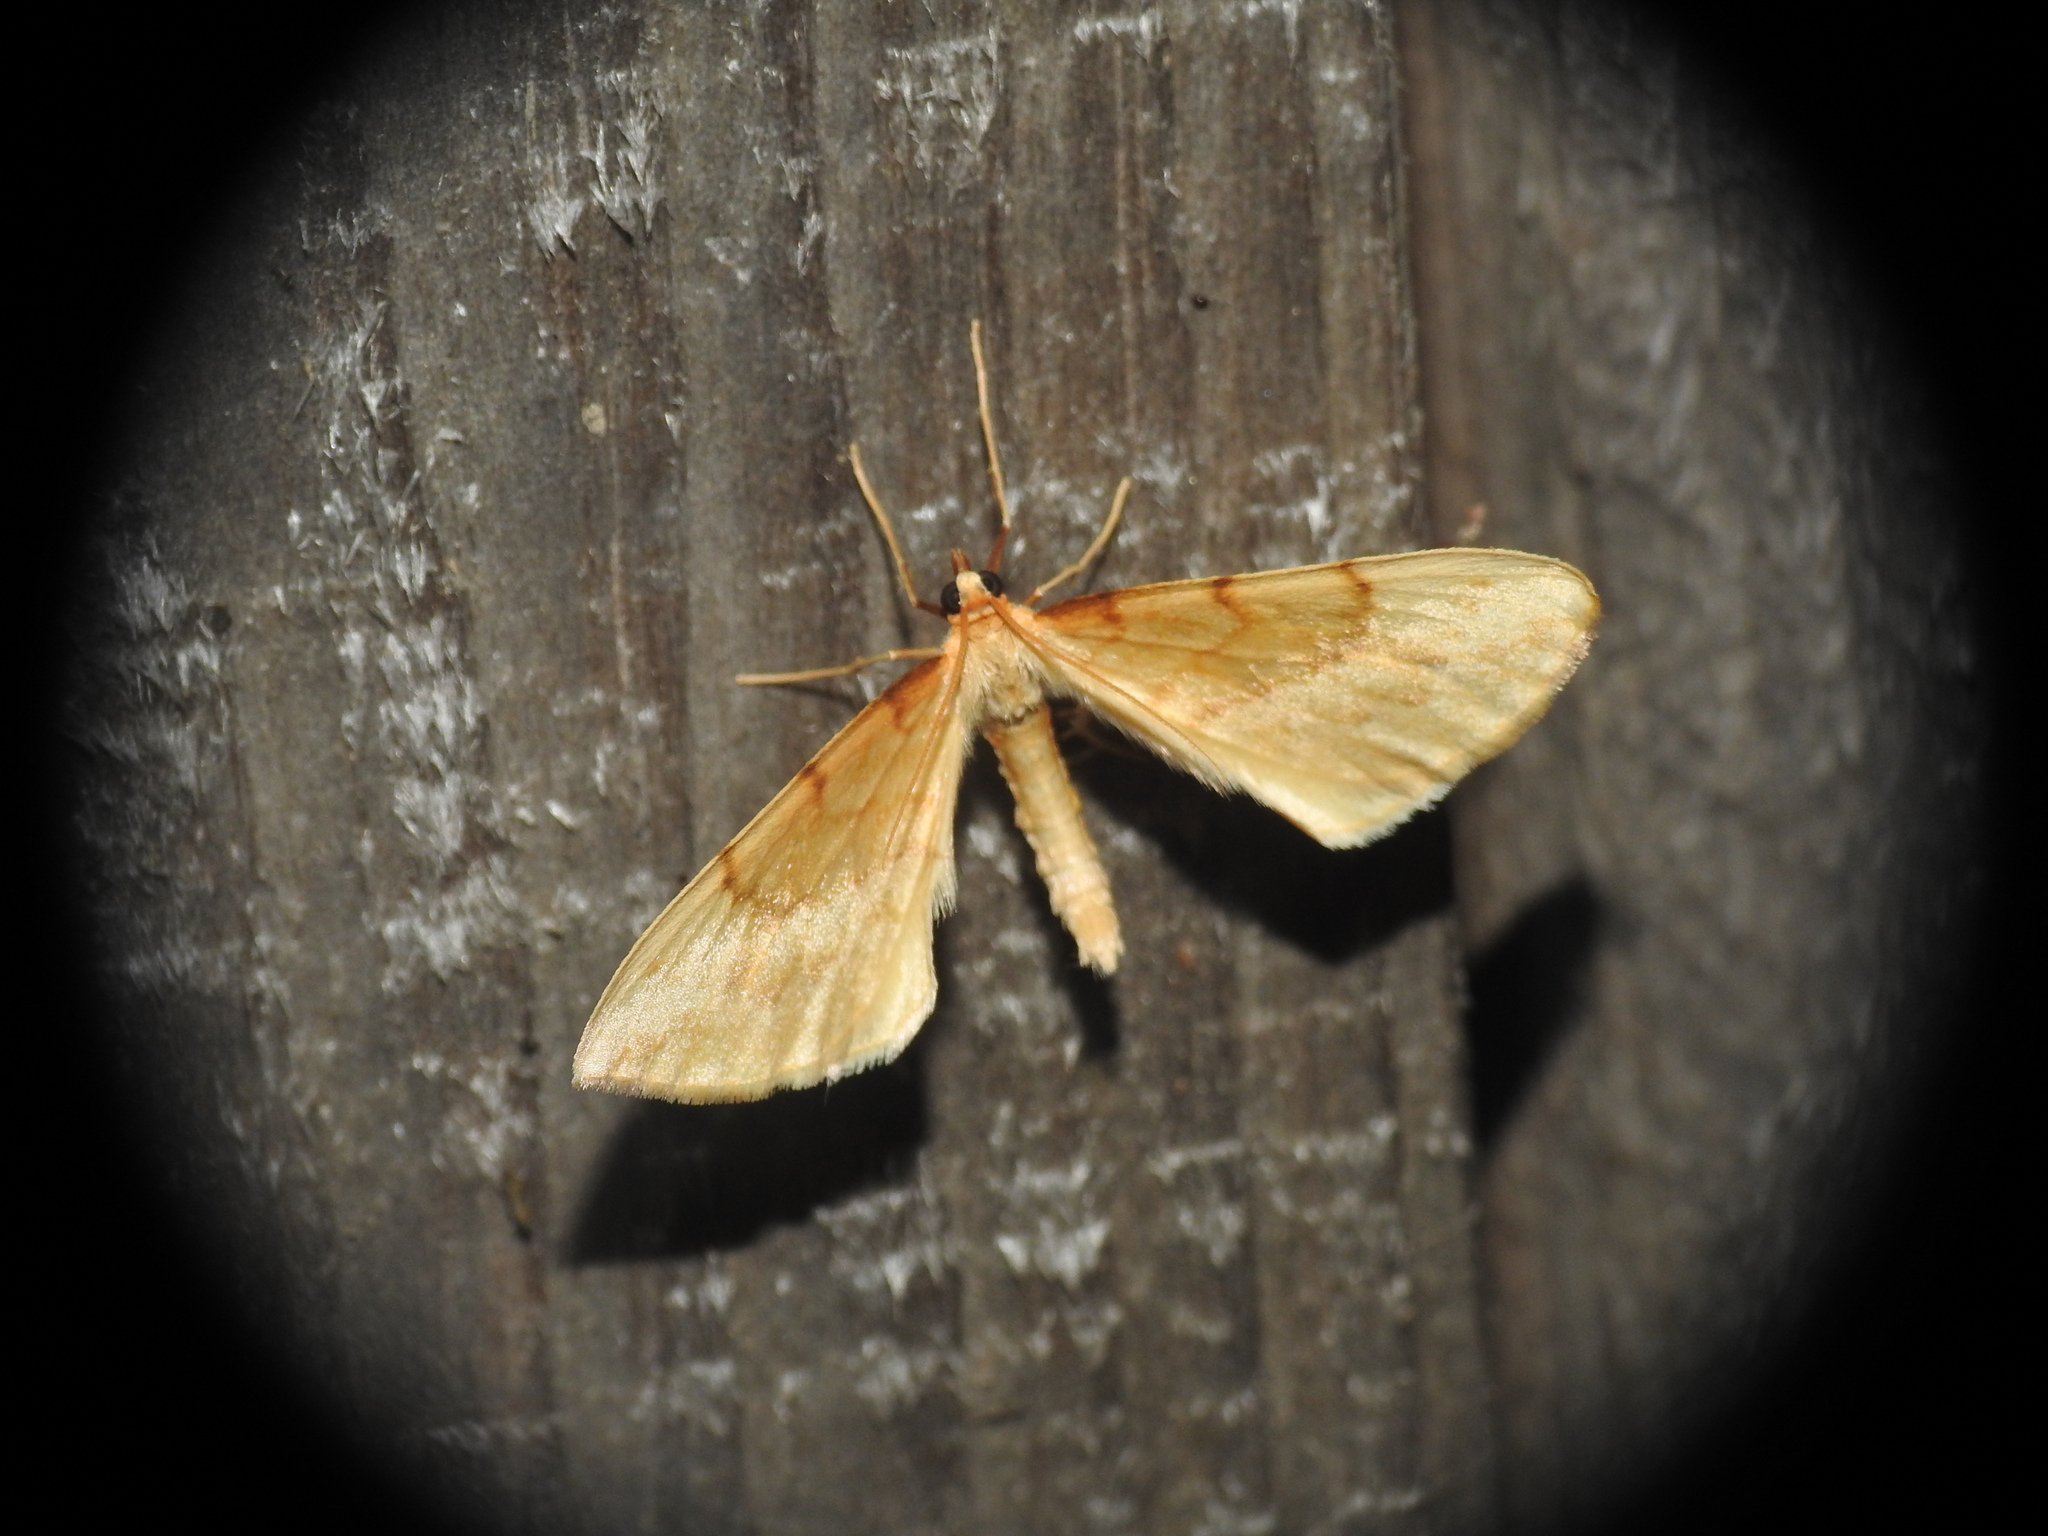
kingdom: Animalia
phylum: Arthropoda
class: Insecta
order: Lepidoptera
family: Geometridae
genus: Eulithis
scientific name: Eulithis pyraliata
